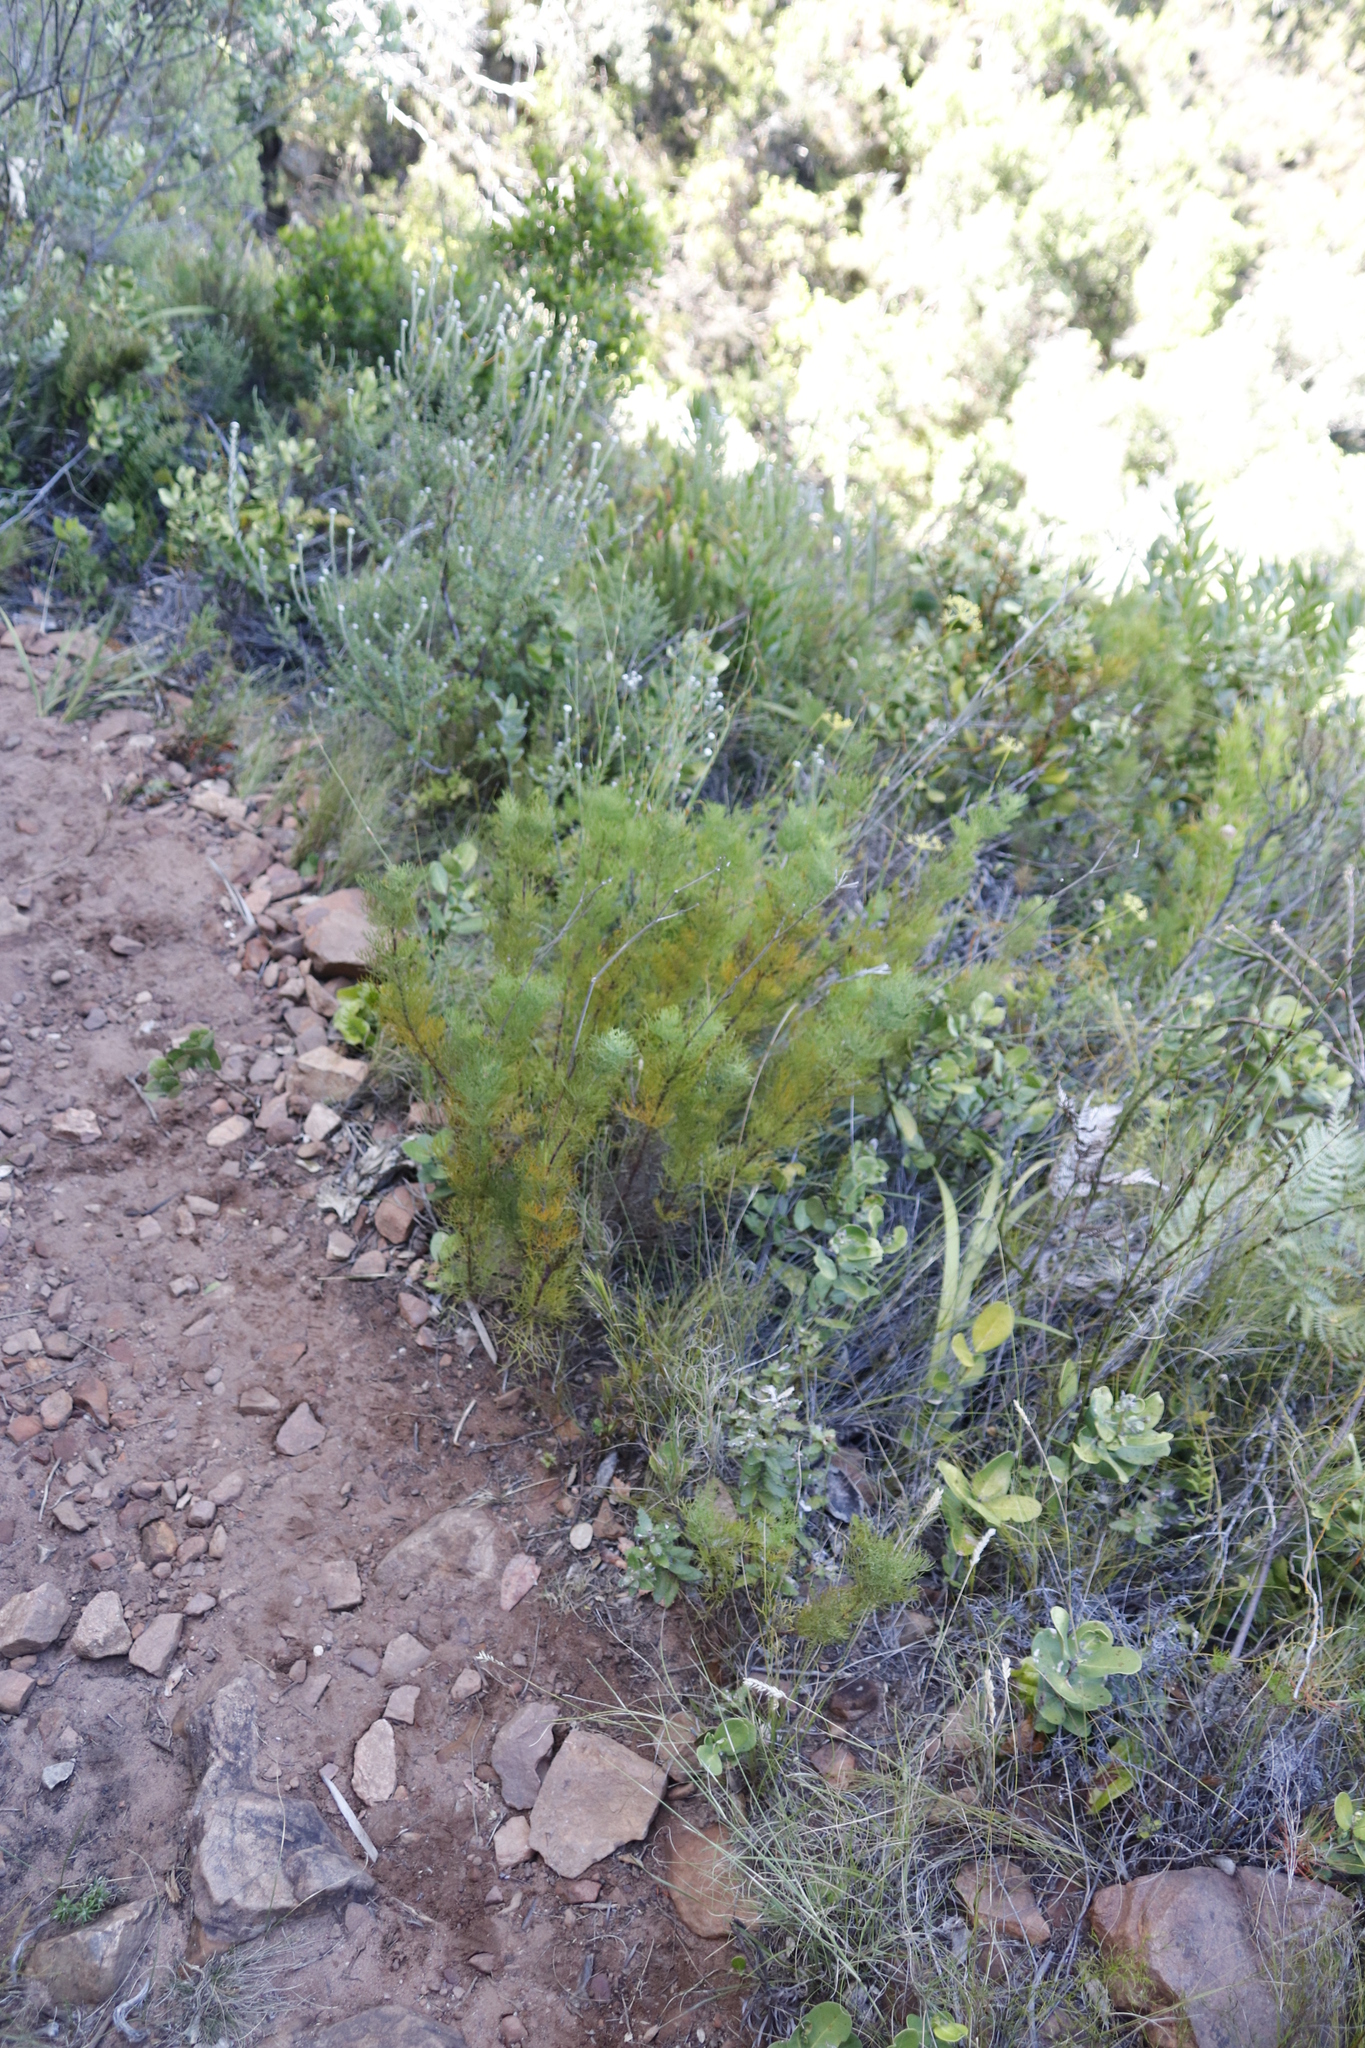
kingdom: Plantae
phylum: Tracheophyta
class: Magnoliopsida
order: Apiales
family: Apiaceae
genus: Notobubon
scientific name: Notobubon ferulaceum
